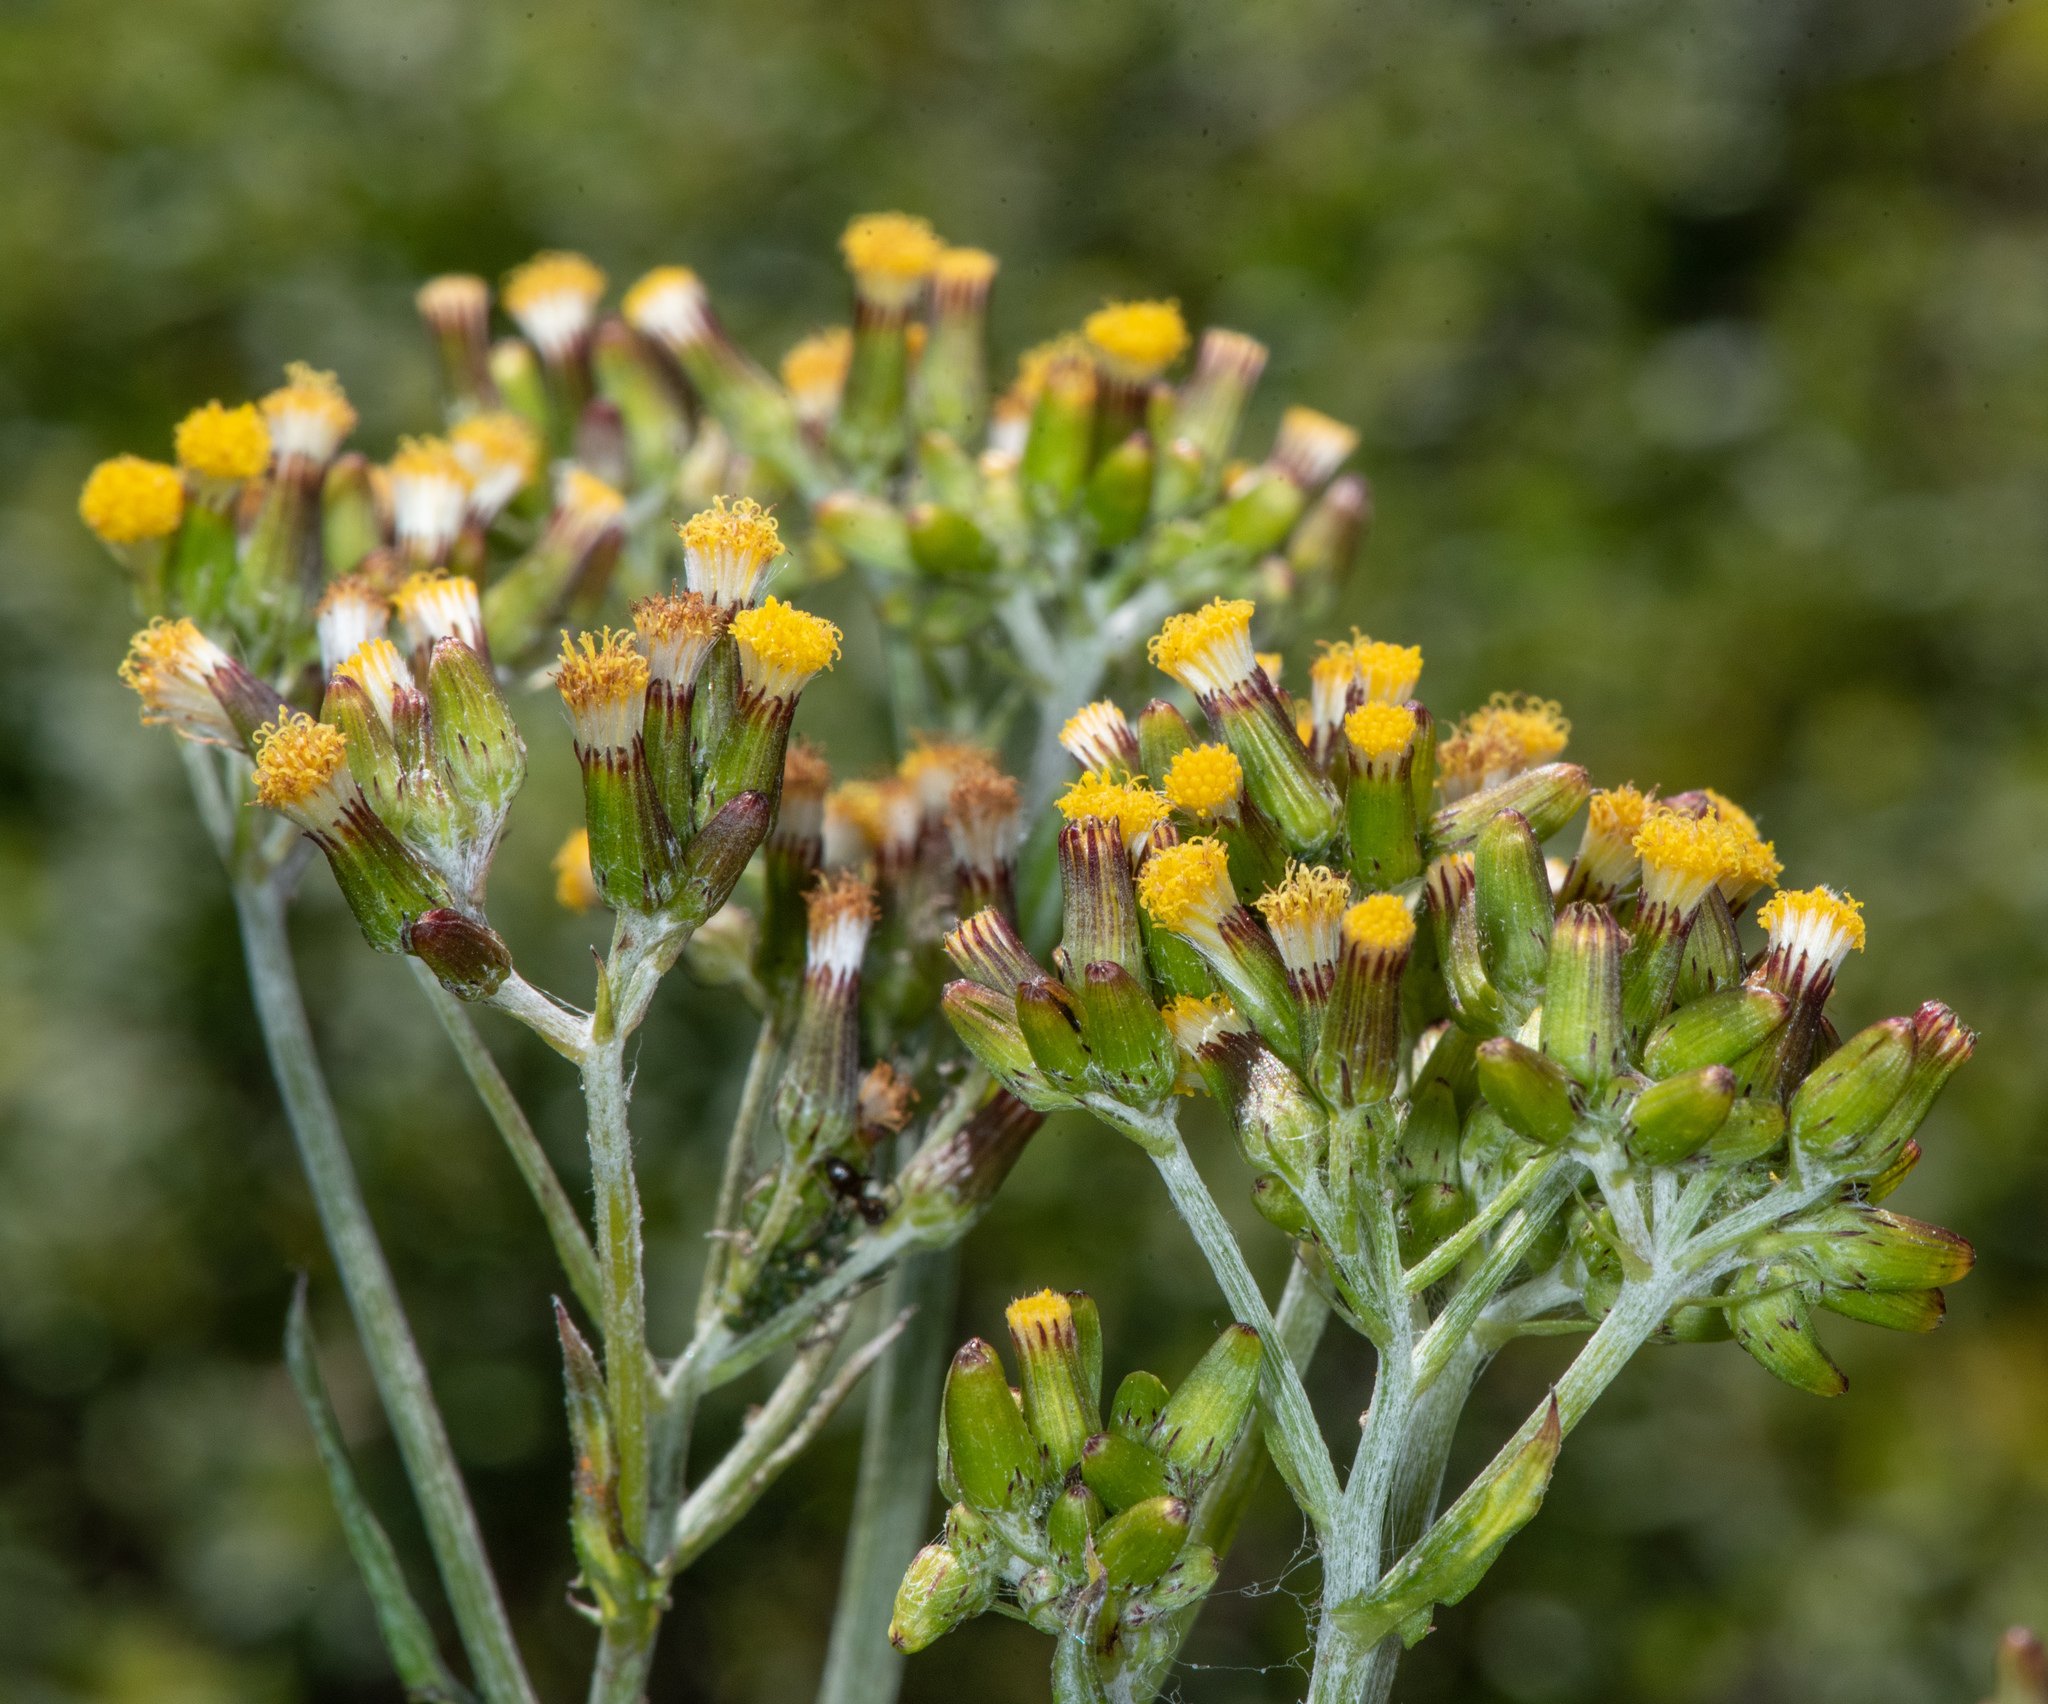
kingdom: Plantae
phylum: Tracheophyta
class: Magnoliopsida
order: Asterales
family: Asteraceae
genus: Senecio
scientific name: Senecio glomeratus
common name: Cutleaf burnweed
